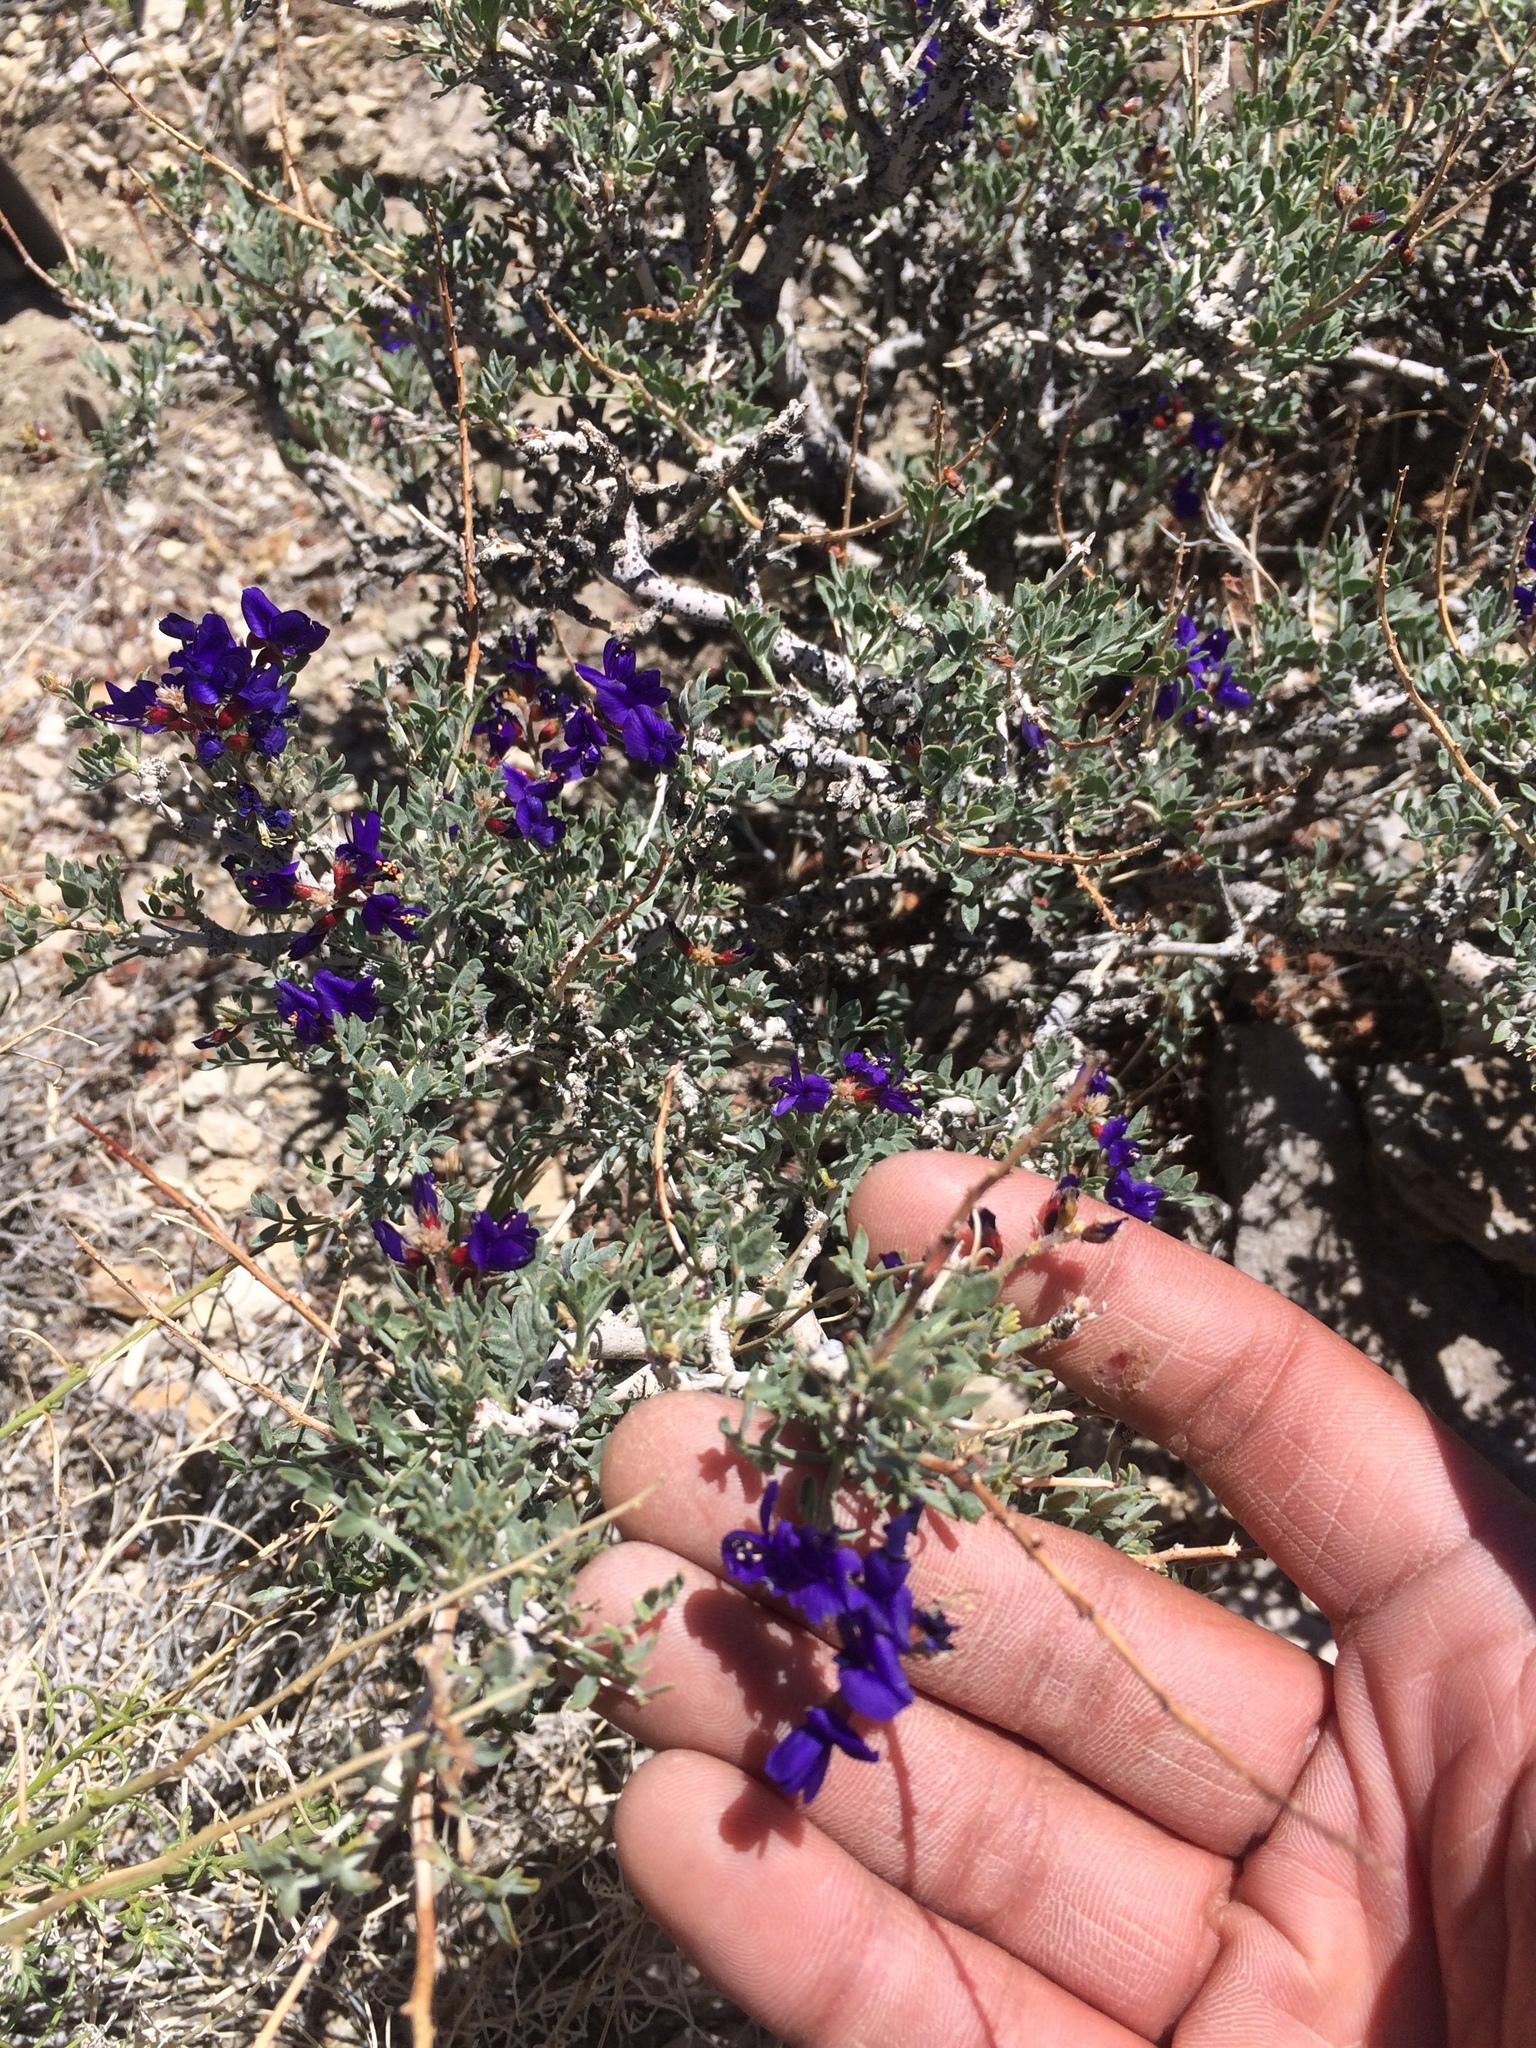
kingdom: Plantae
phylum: Tracheophyta
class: Magnoliopsida
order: Fabales
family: Fabaceae
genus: Psorothamnus
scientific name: Psorothamnus arborescens
